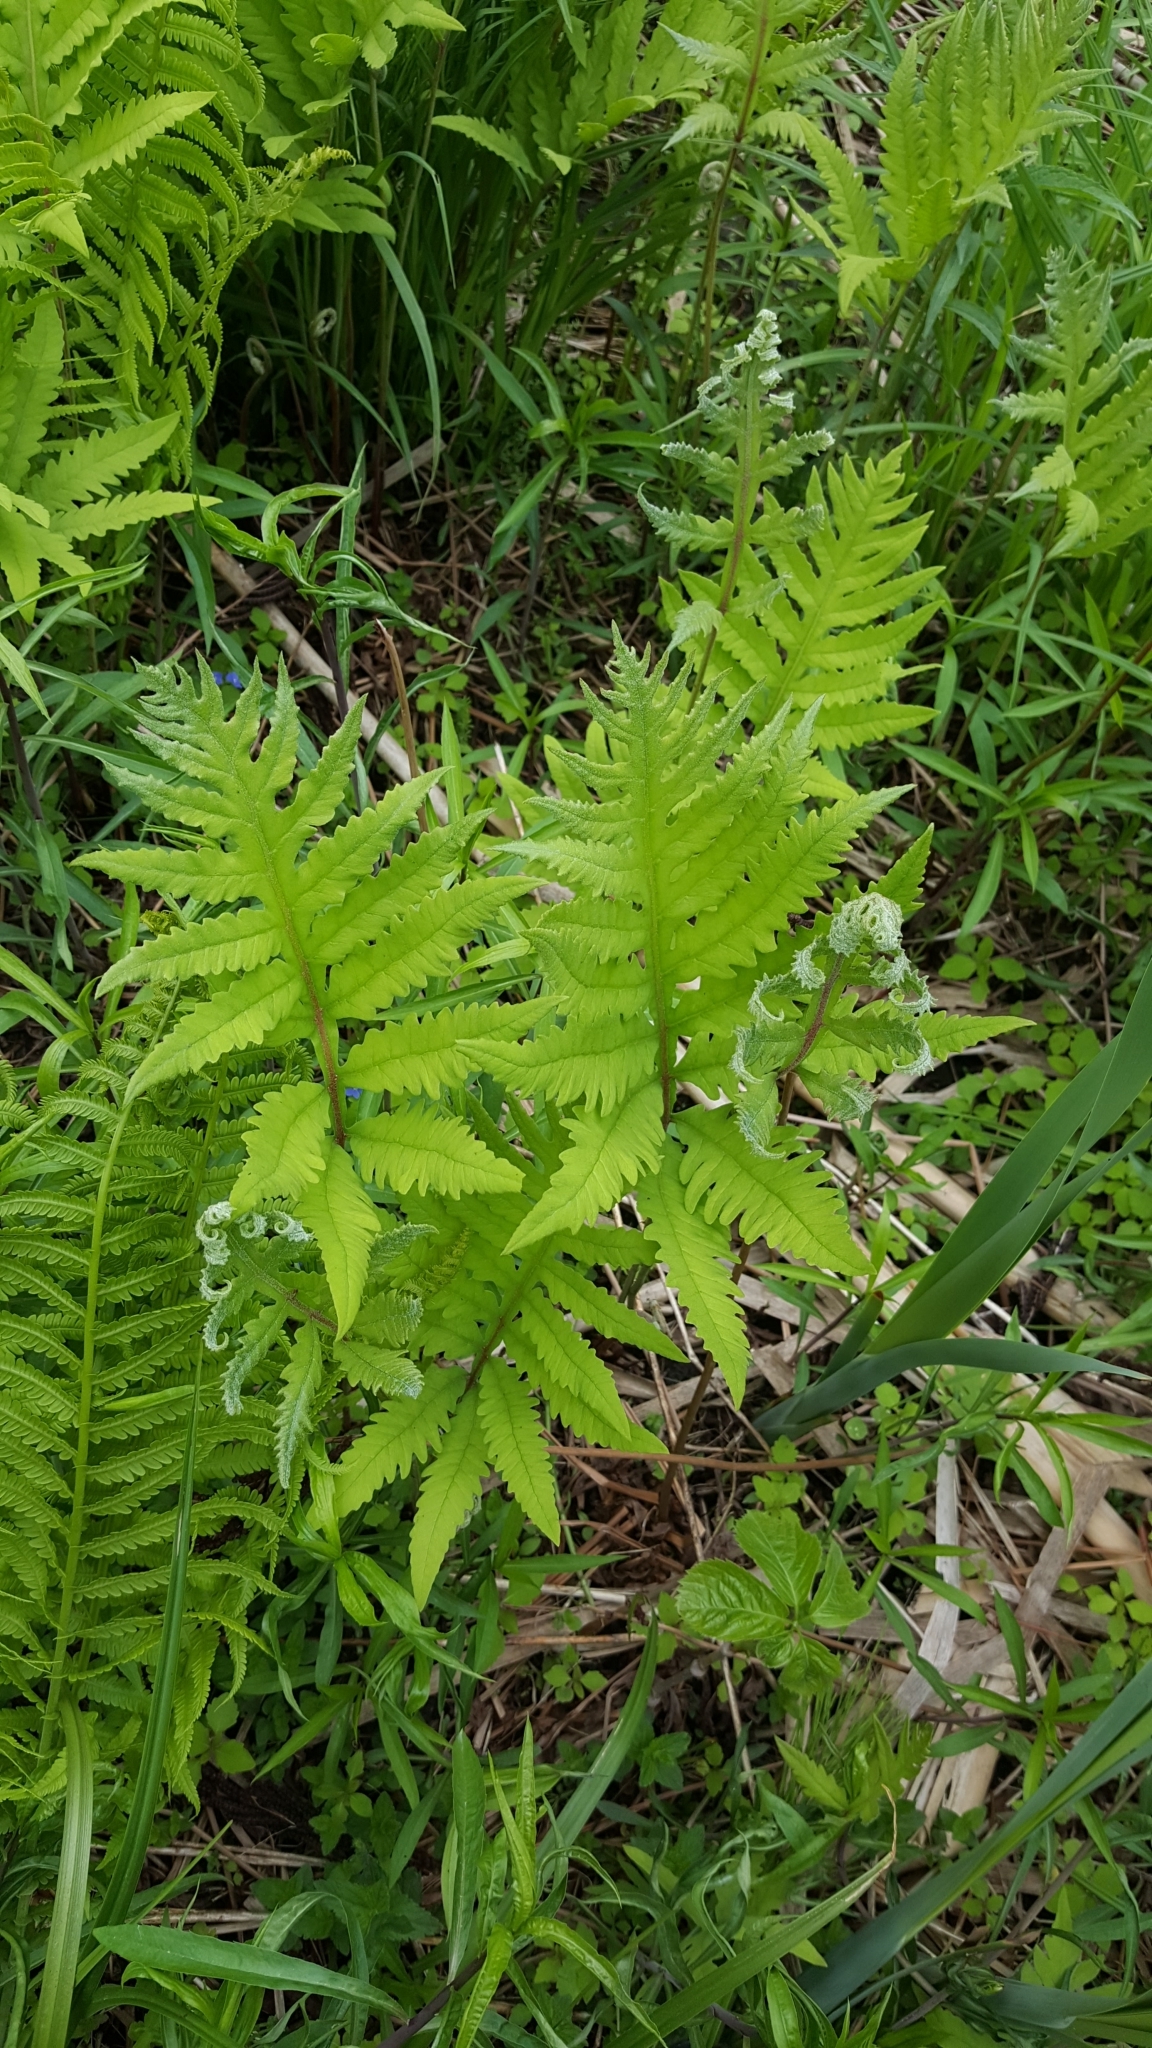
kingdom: Plantae
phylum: Tracheophyta
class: Polypodiopsida
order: Polypodiales
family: Onocleaceae
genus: Onoclea
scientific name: Onoclea sensibilis
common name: Sensitive fern
